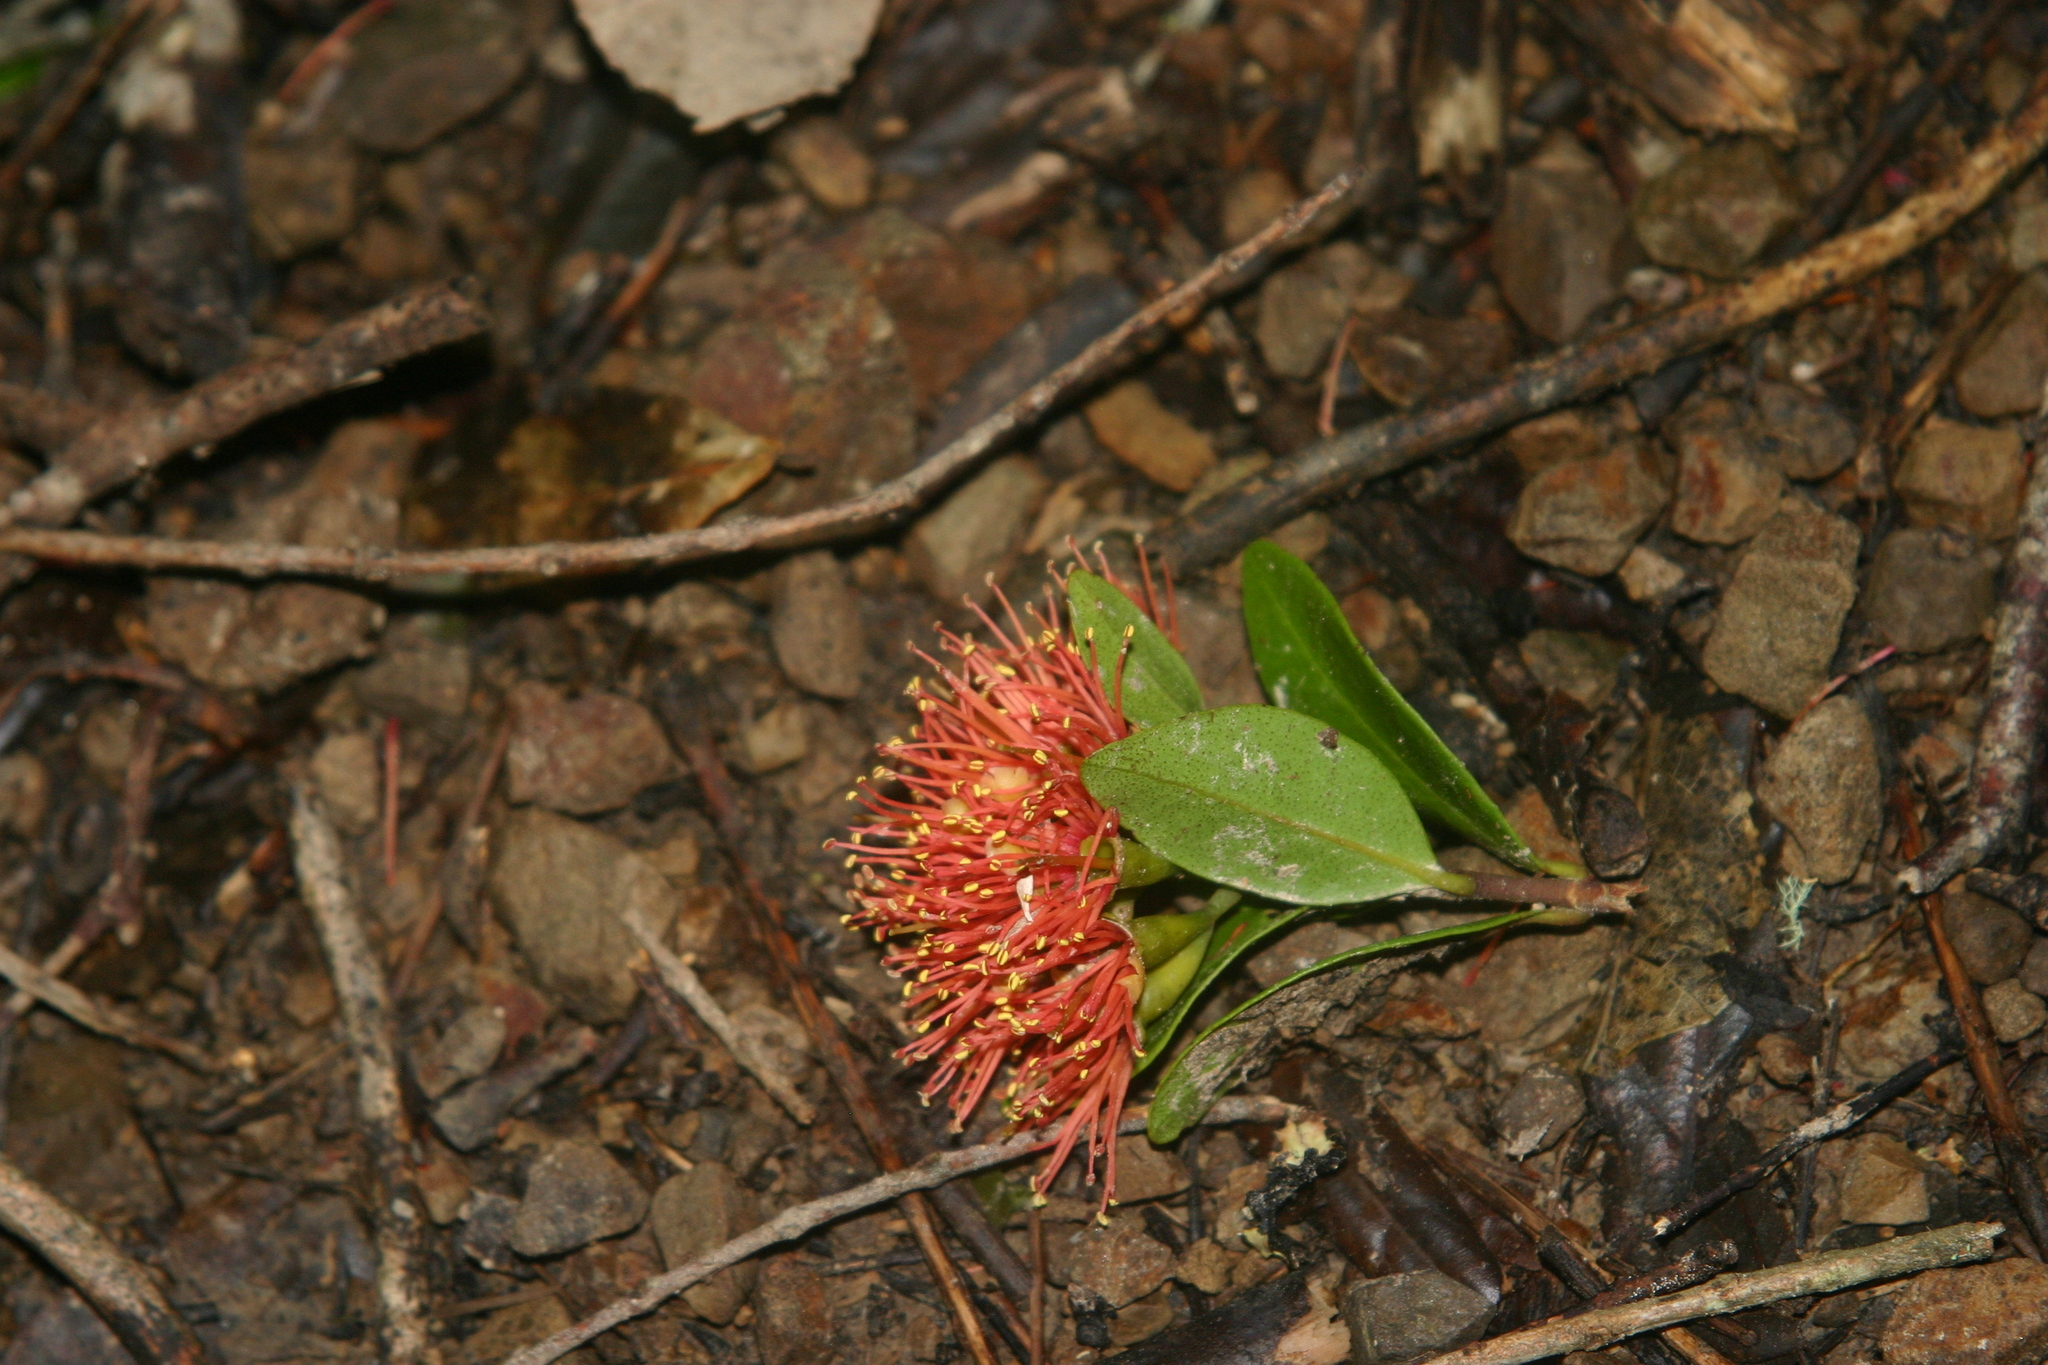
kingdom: Plantae
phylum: Tracheophyta
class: Magnoliopsida
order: Myrtales
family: Myrtaceae
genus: Metrosideros
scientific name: Metrosideros fulgens
